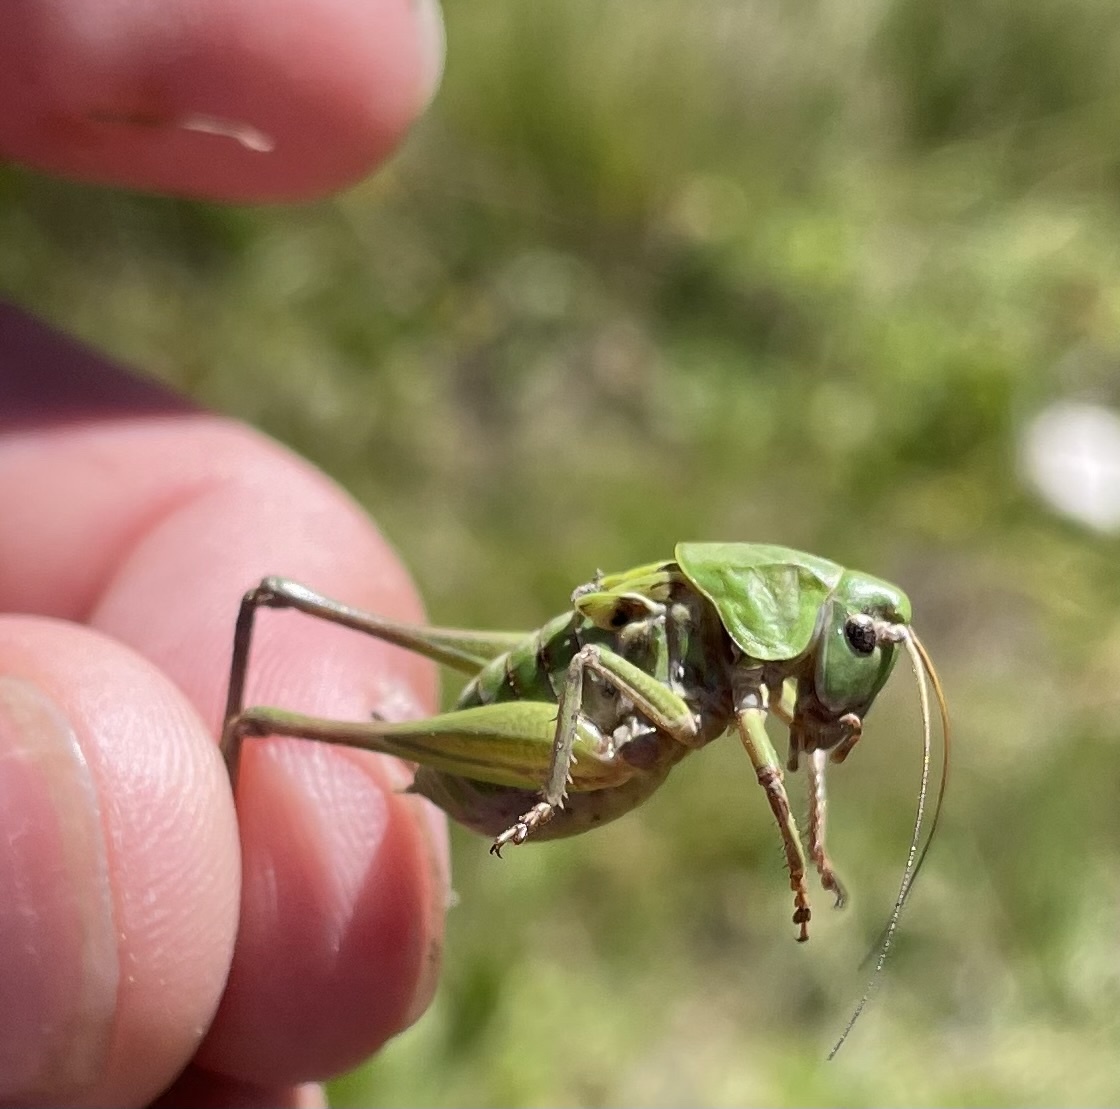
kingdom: Animalia
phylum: Arthropoda
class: Insecta
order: Orthoptera
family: Tettigoniidae
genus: Decticus
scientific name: Decticus verrucivorus
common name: Wart-biter
